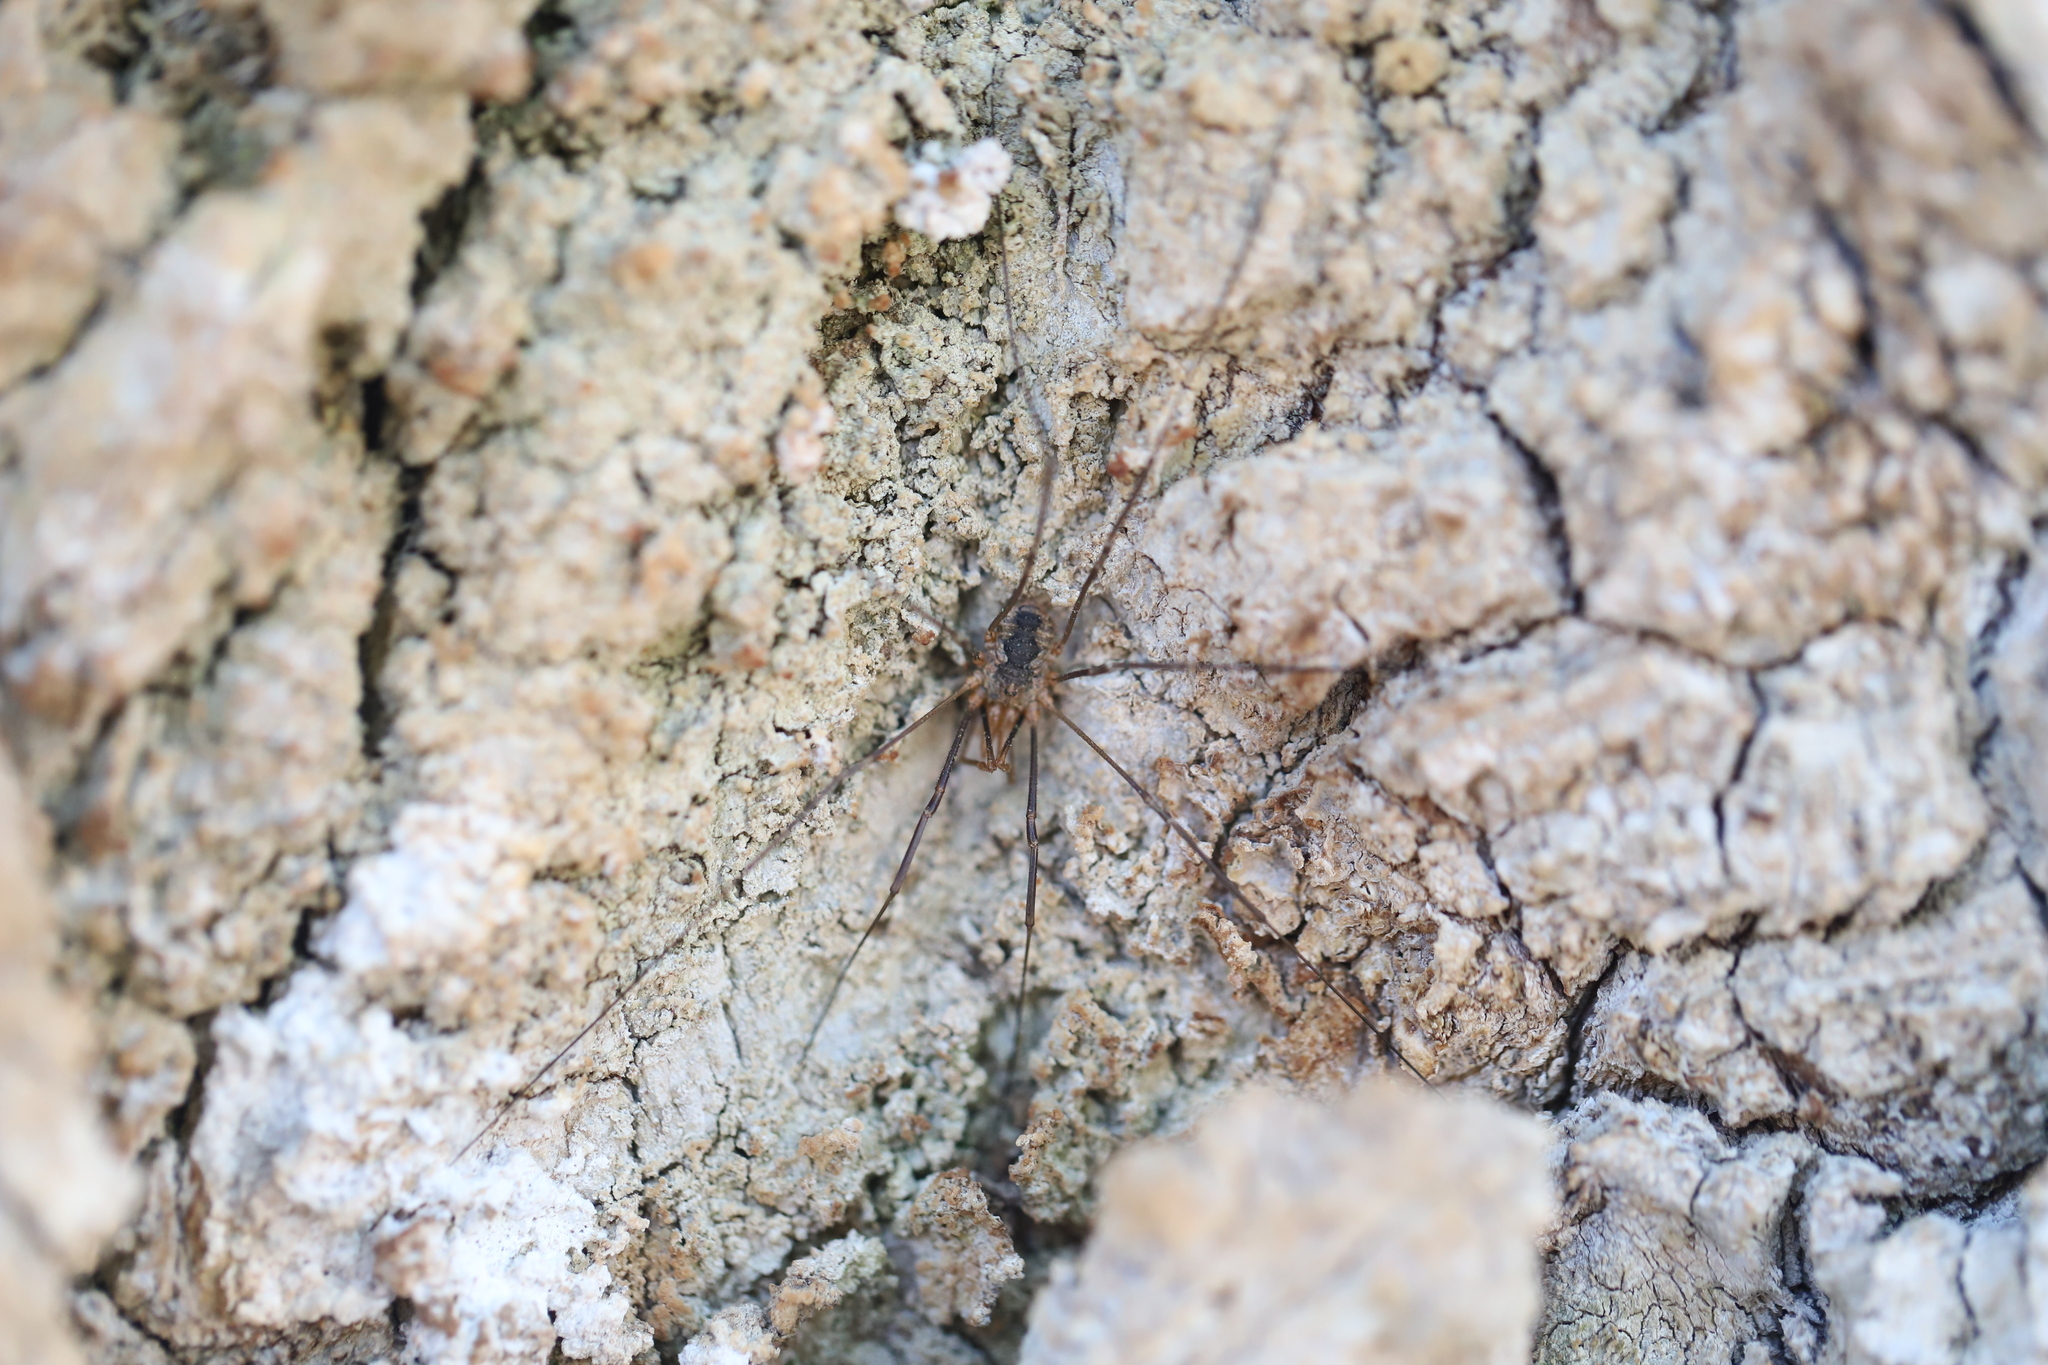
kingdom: Animalia
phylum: Arthropoda
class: Arachnida
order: Opiliones
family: Phalangiidae
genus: Phalangium
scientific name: Phalangium opilio
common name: Daddy longleg
